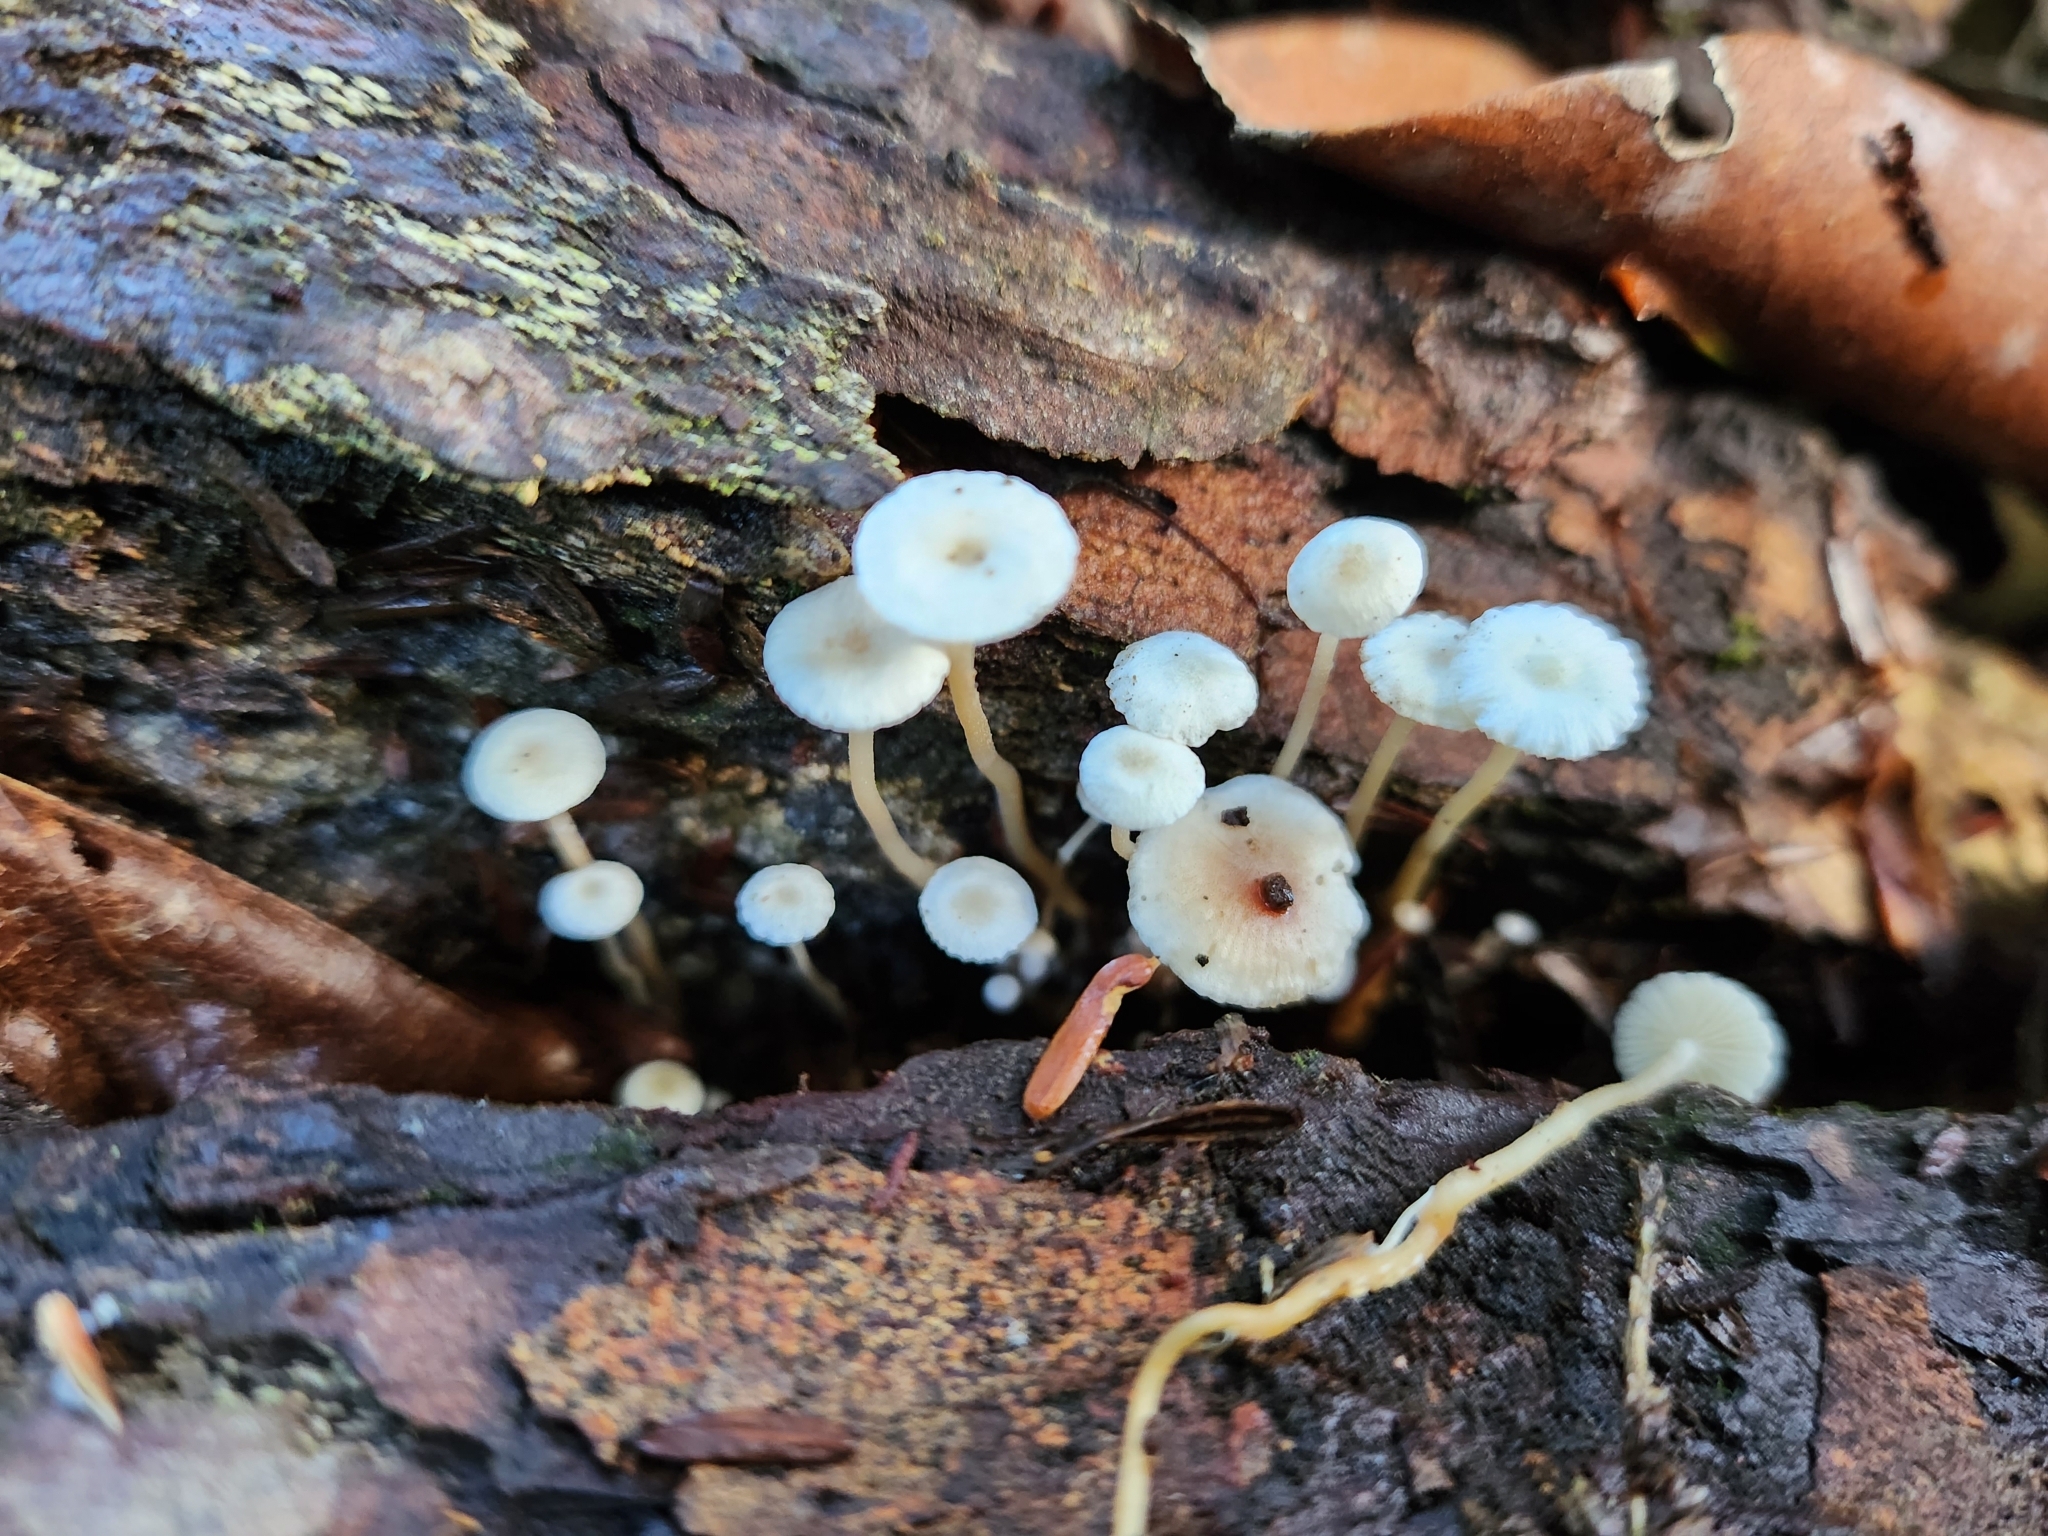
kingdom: Fungi
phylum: Basidiomycota
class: Agaricomycetes
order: Agaricales
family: Tricholomataceae
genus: Collybia
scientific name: Collybia tuberosa
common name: Lentil shanklet
